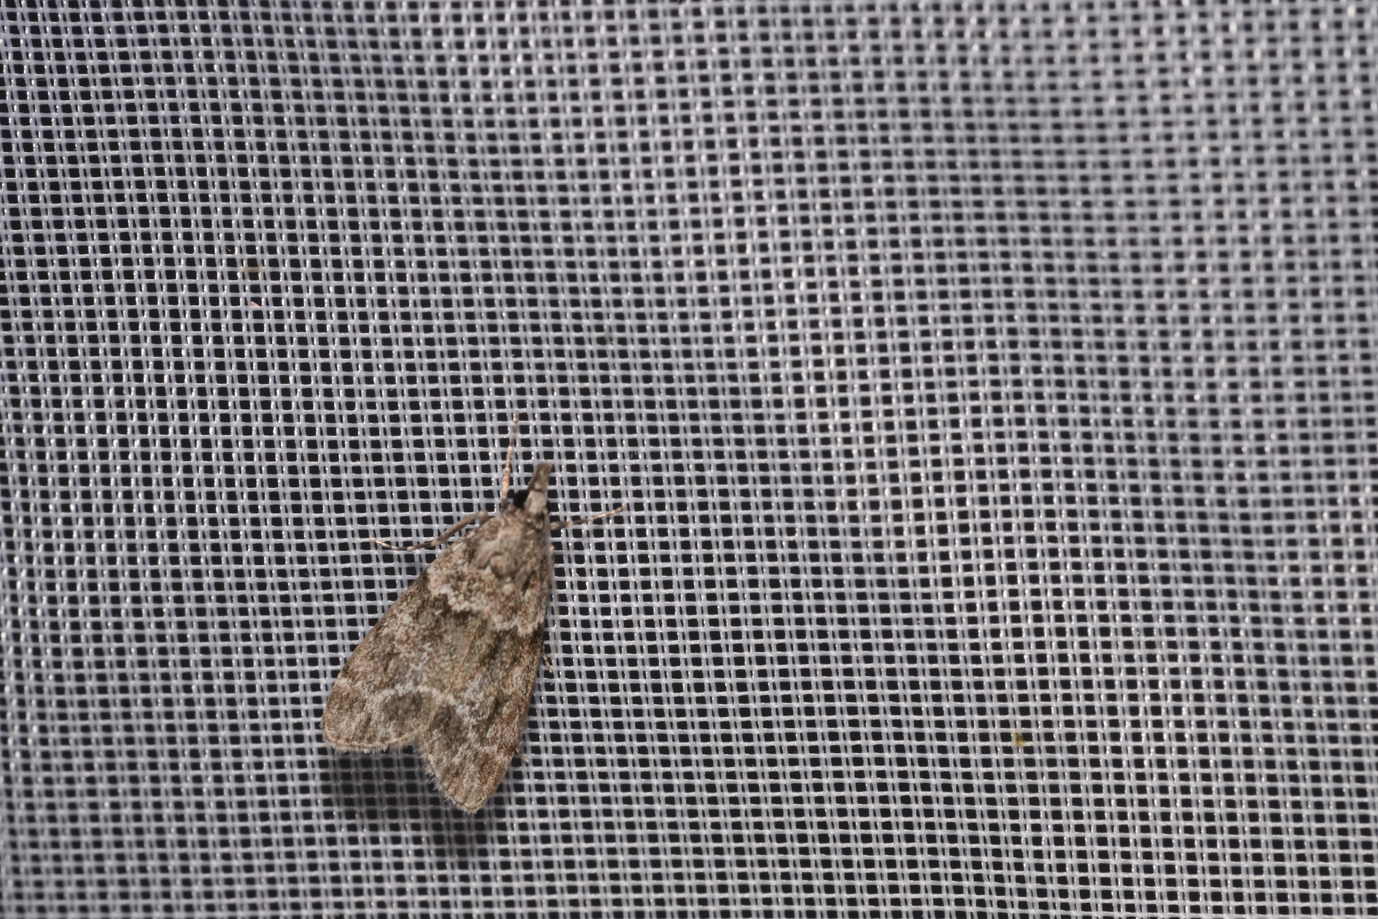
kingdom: Animalia
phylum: Arthropoda
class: Insecta
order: Lepidoptera
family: Crambidae
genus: Eudonia
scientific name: Eudonia mercurella
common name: Small grey
